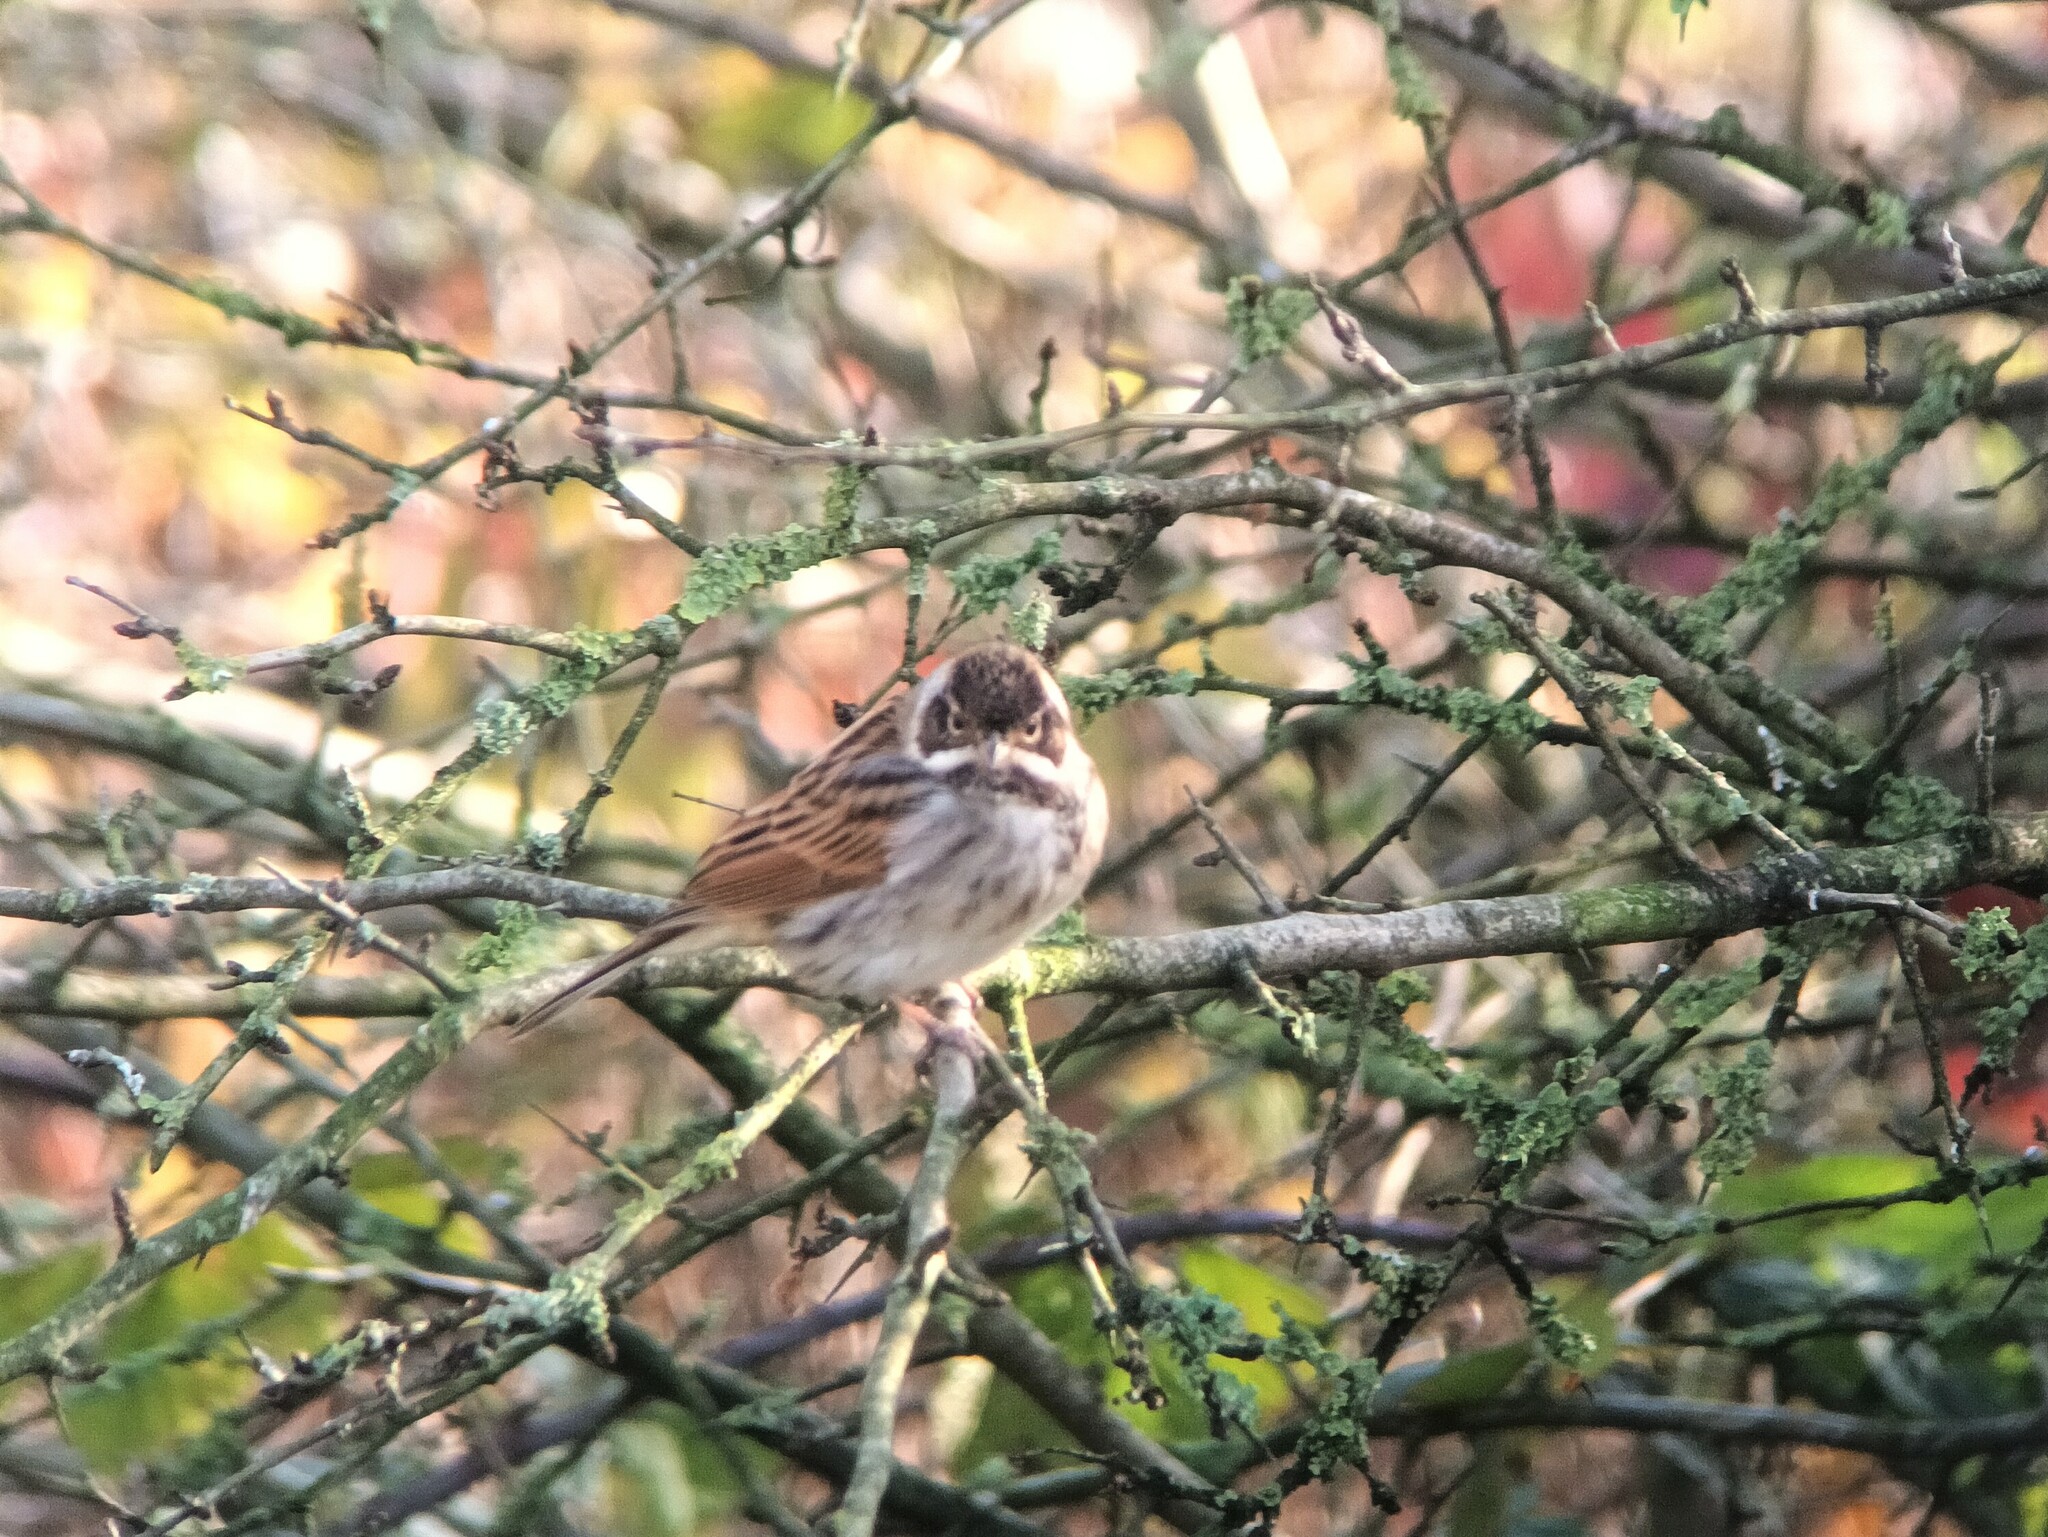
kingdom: Animalia
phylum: Chordata
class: Aves
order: Passeriformes
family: Emberizidae
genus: Emberiza
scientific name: Emberiza schoeniclus
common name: Reed bunting
